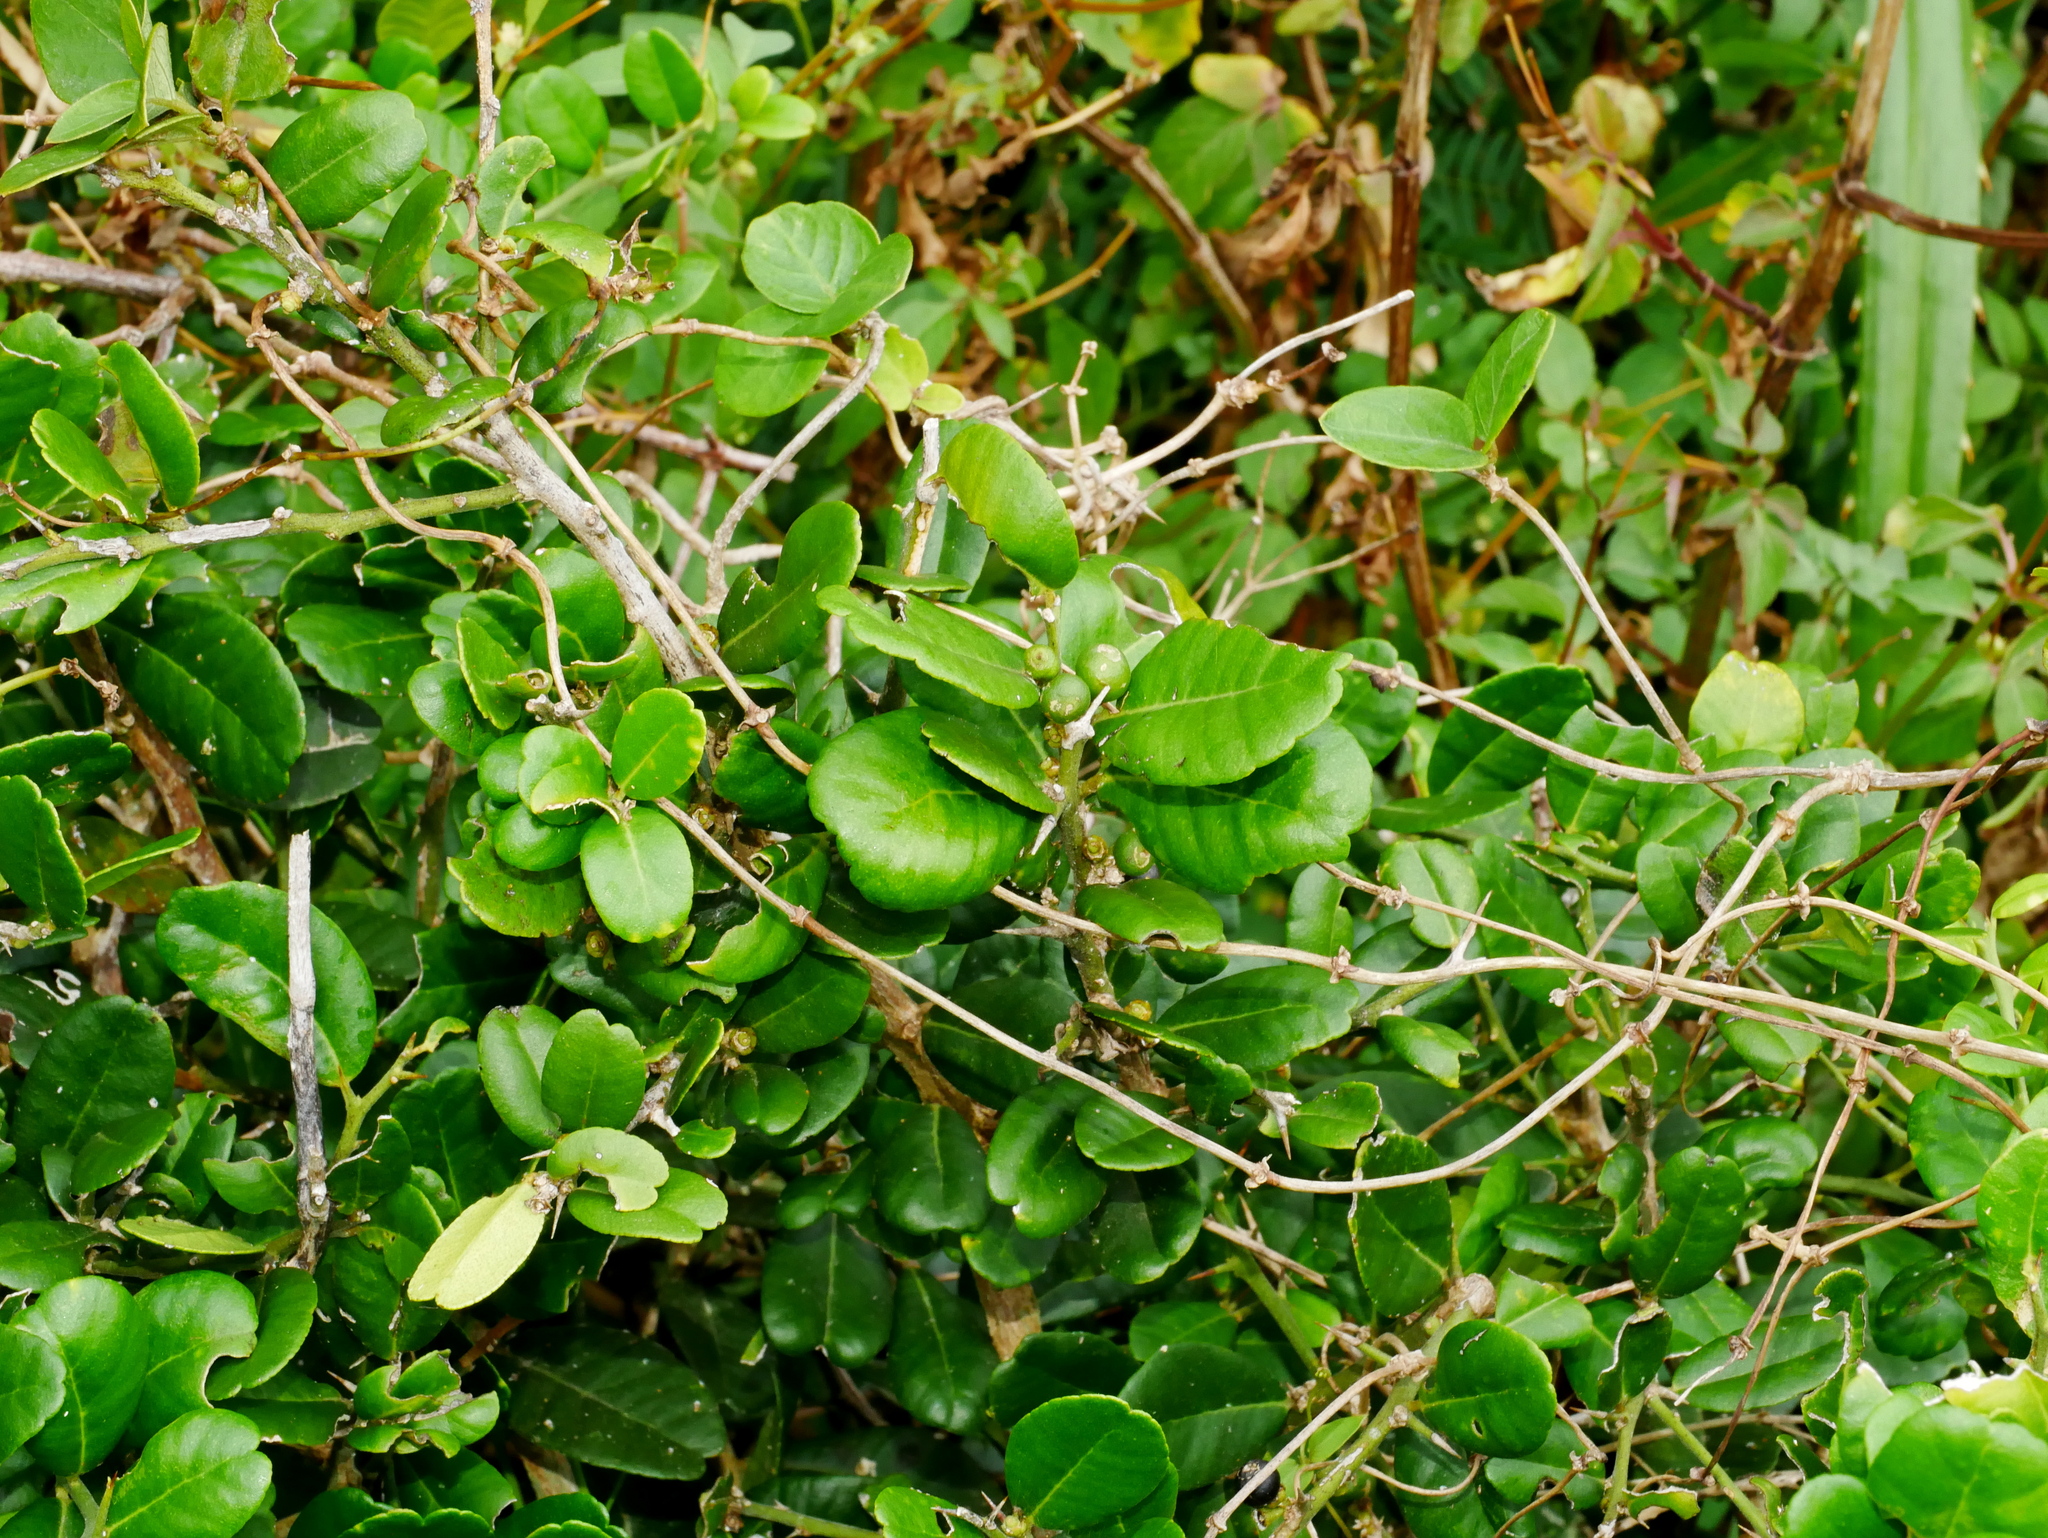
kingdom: Plantae
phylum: Tracheophyta
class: Magnoliopsida
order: Sapindales
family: Rutaceae
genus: Atalantia
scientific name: Atalantia buxifolia
